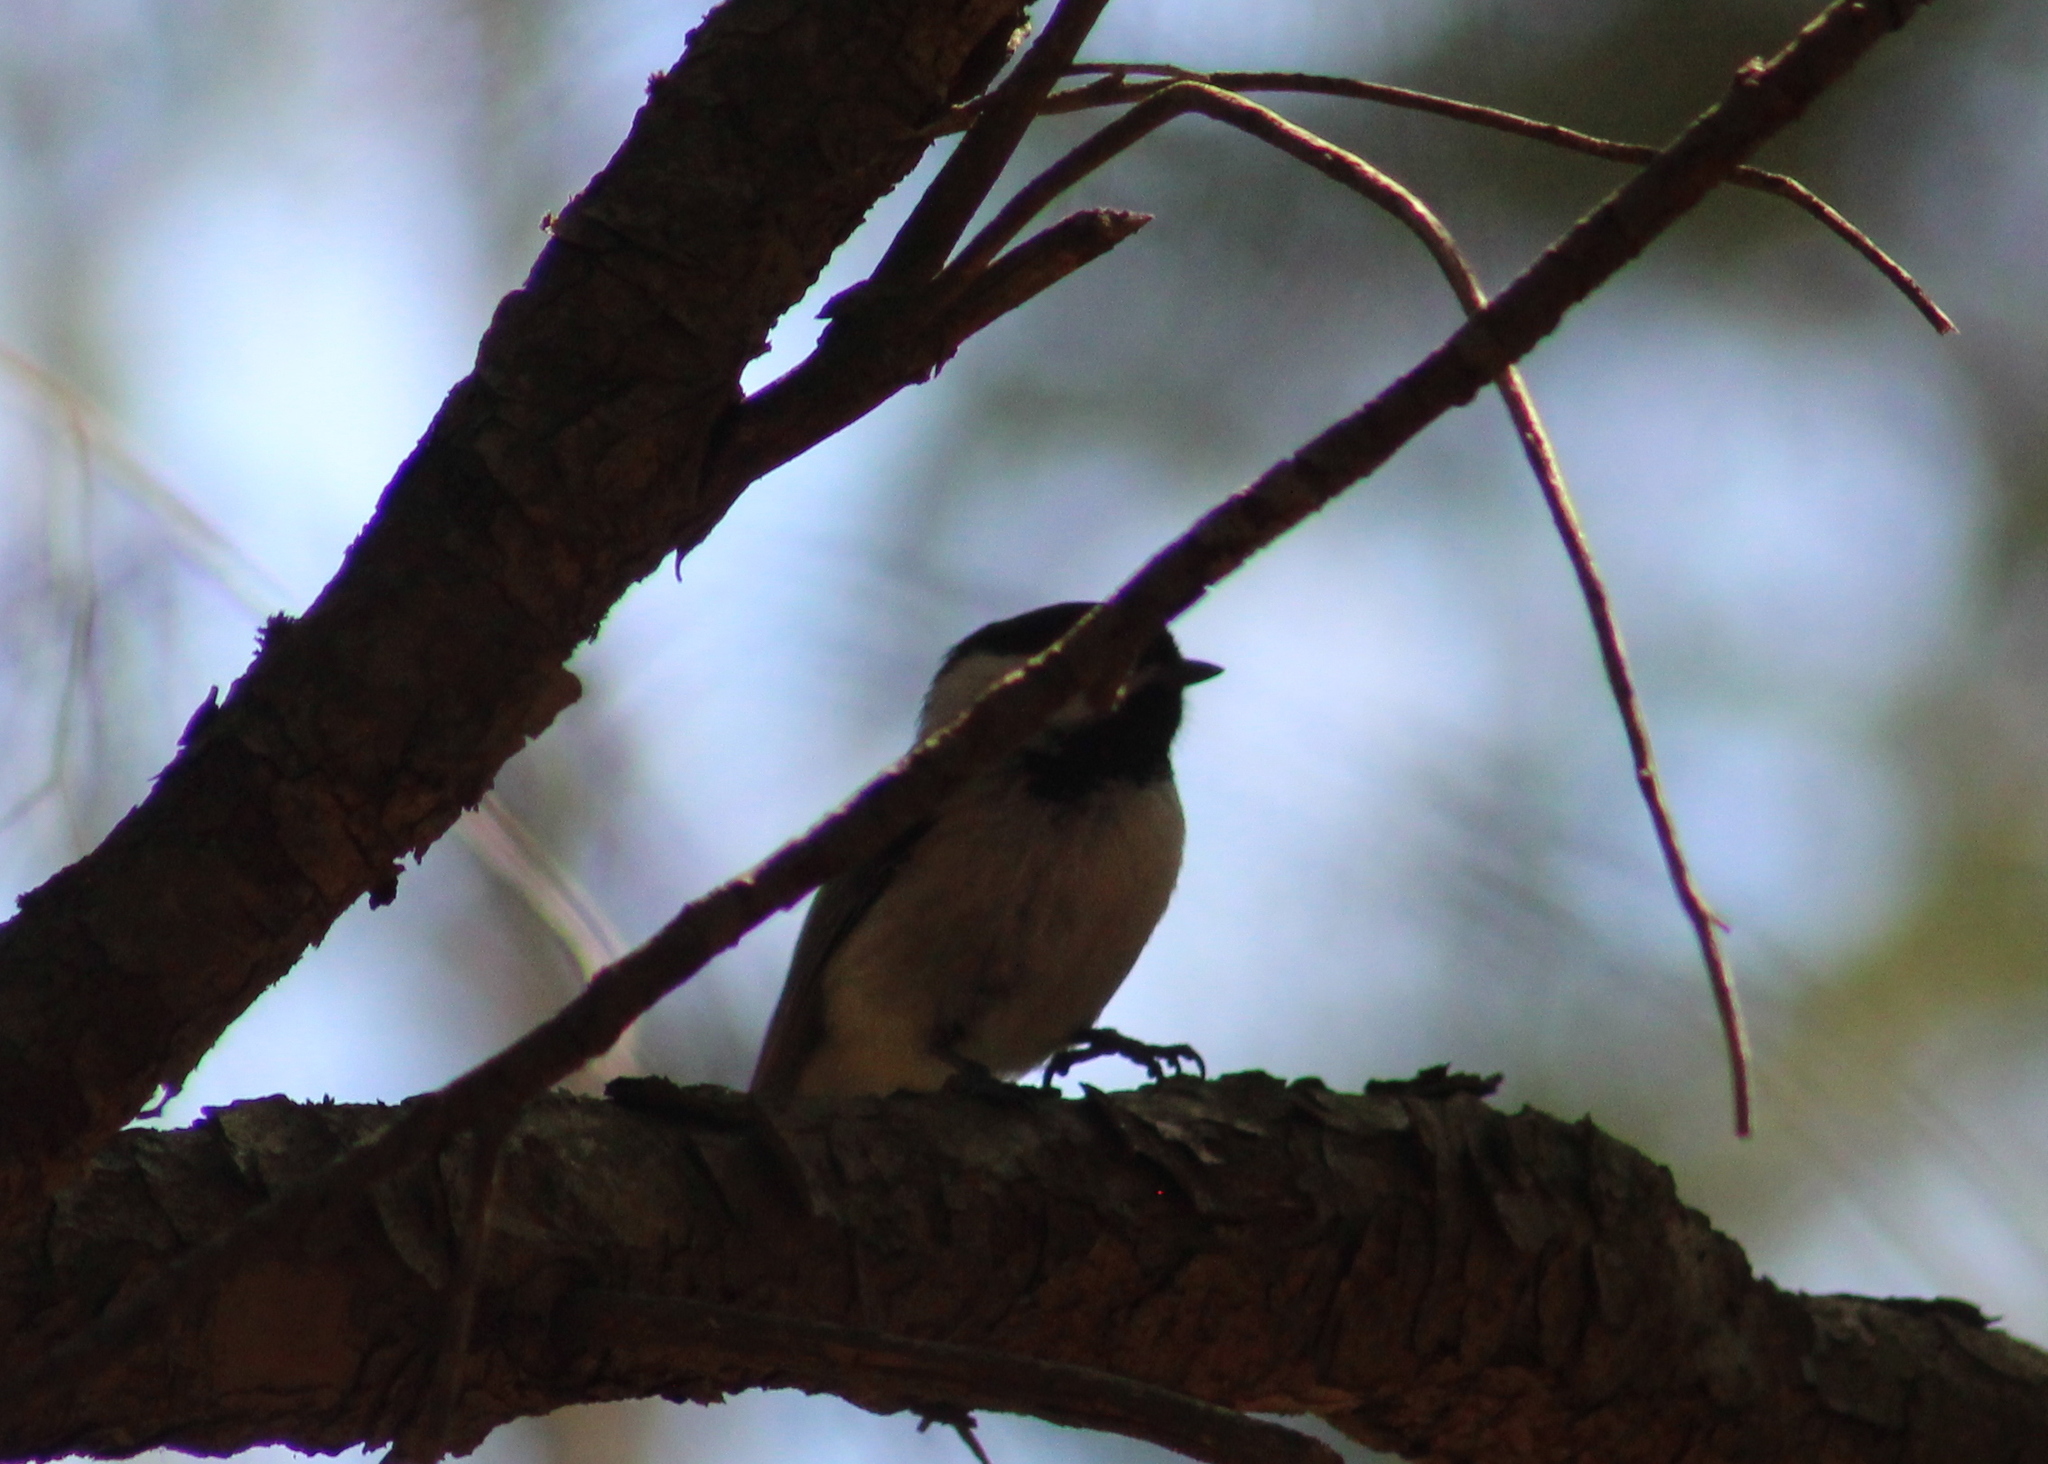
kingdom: Animalia
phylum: Chordata
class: Aves
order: Passeriformes
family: Paridae
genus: Poecile
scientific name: Poecile atricapillus
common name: Black-capped chickadee
